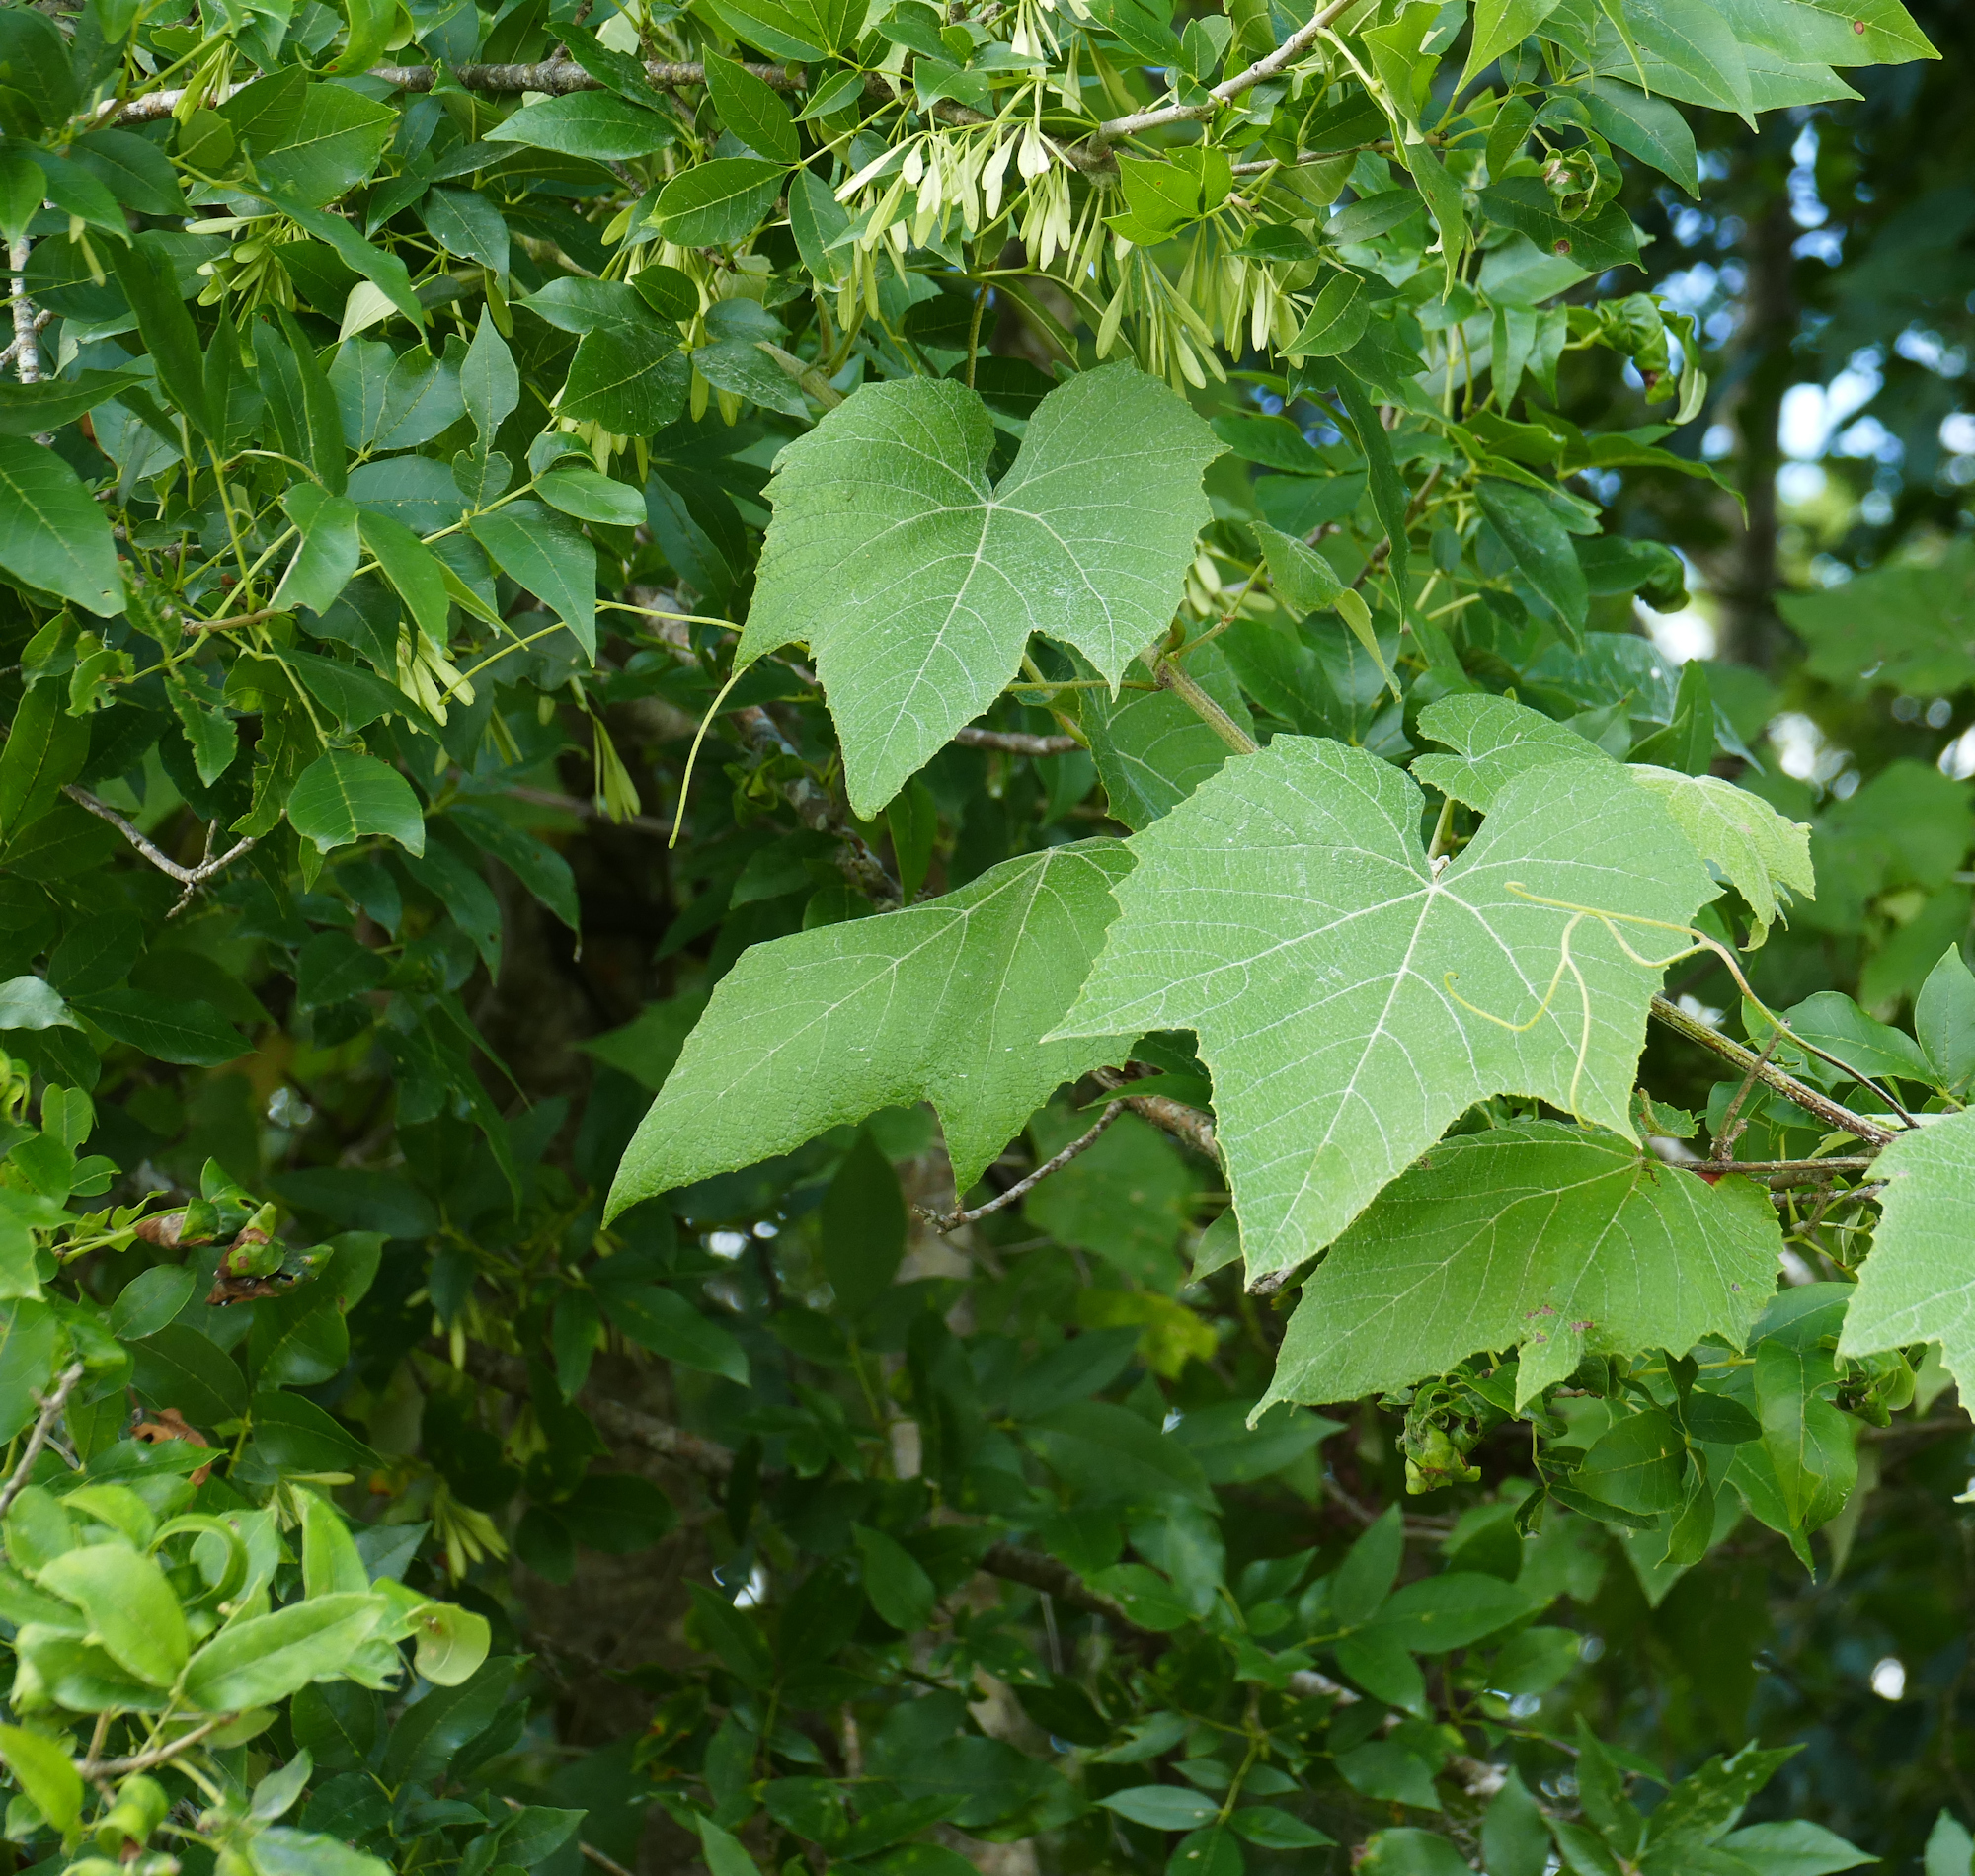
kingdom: Plantae
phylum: Tracheophyta
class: Magnoliopsida
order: Lamiales
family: Oleaceae
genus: Fraxinus
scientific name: Fraxinus pennsylvanica
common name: Green ash
